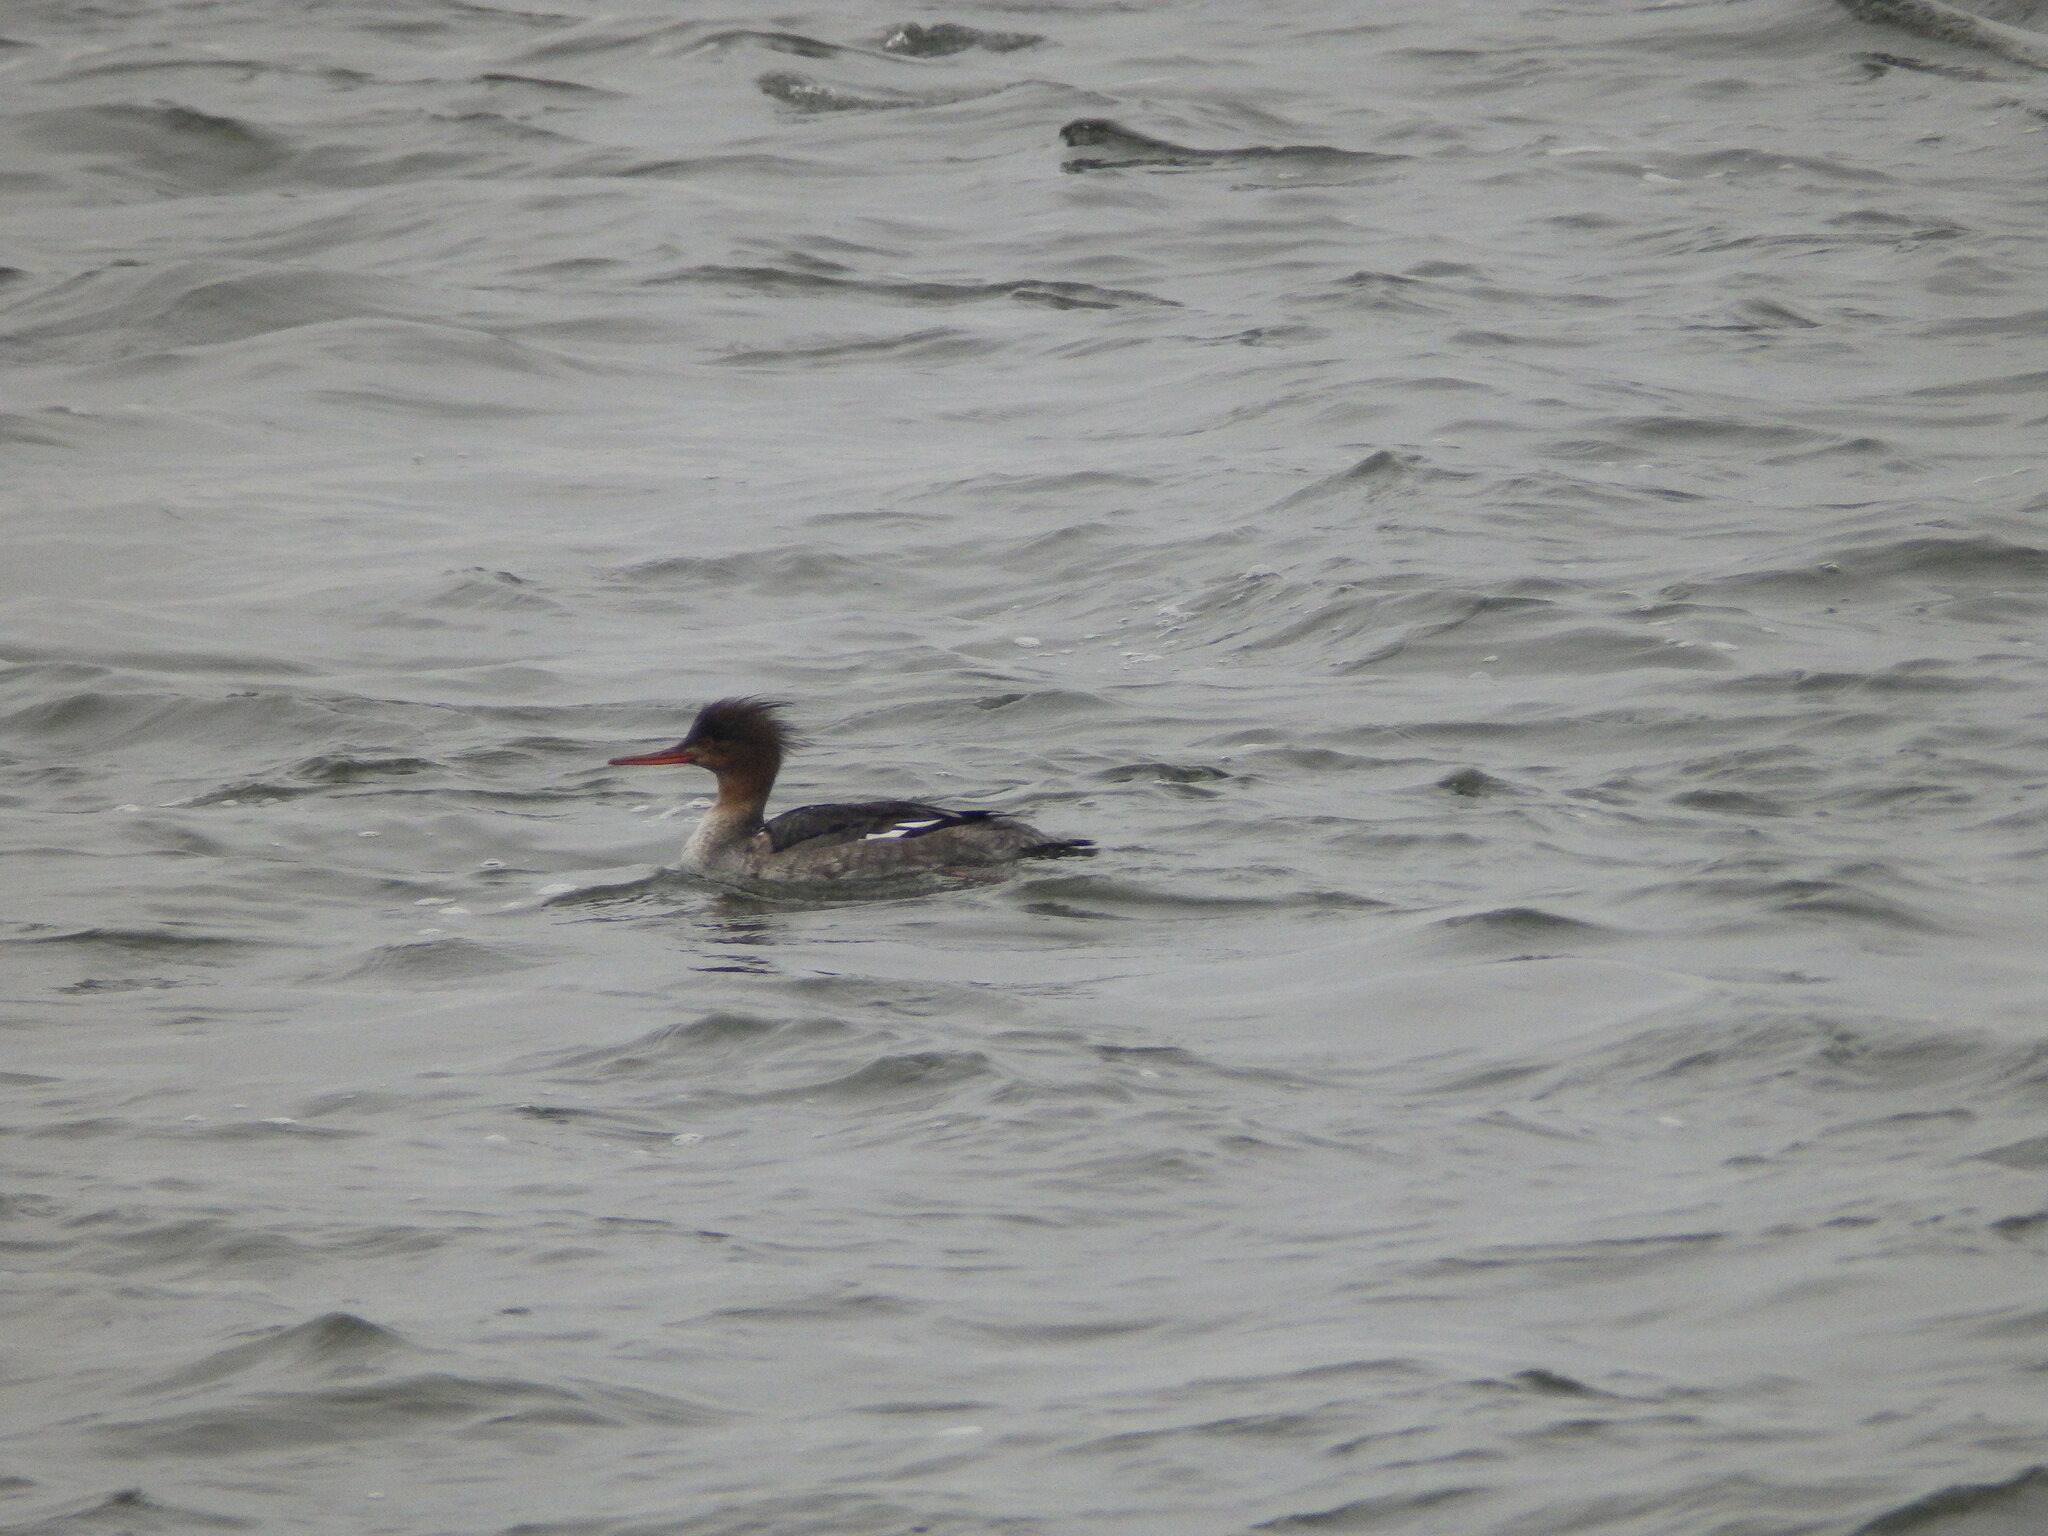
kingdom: Animalia
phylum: Chordata
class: Aves
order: Anseriformes
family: Anatidae
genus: Mergus
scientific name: Mergus serrator
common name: Red-breasted merganser
